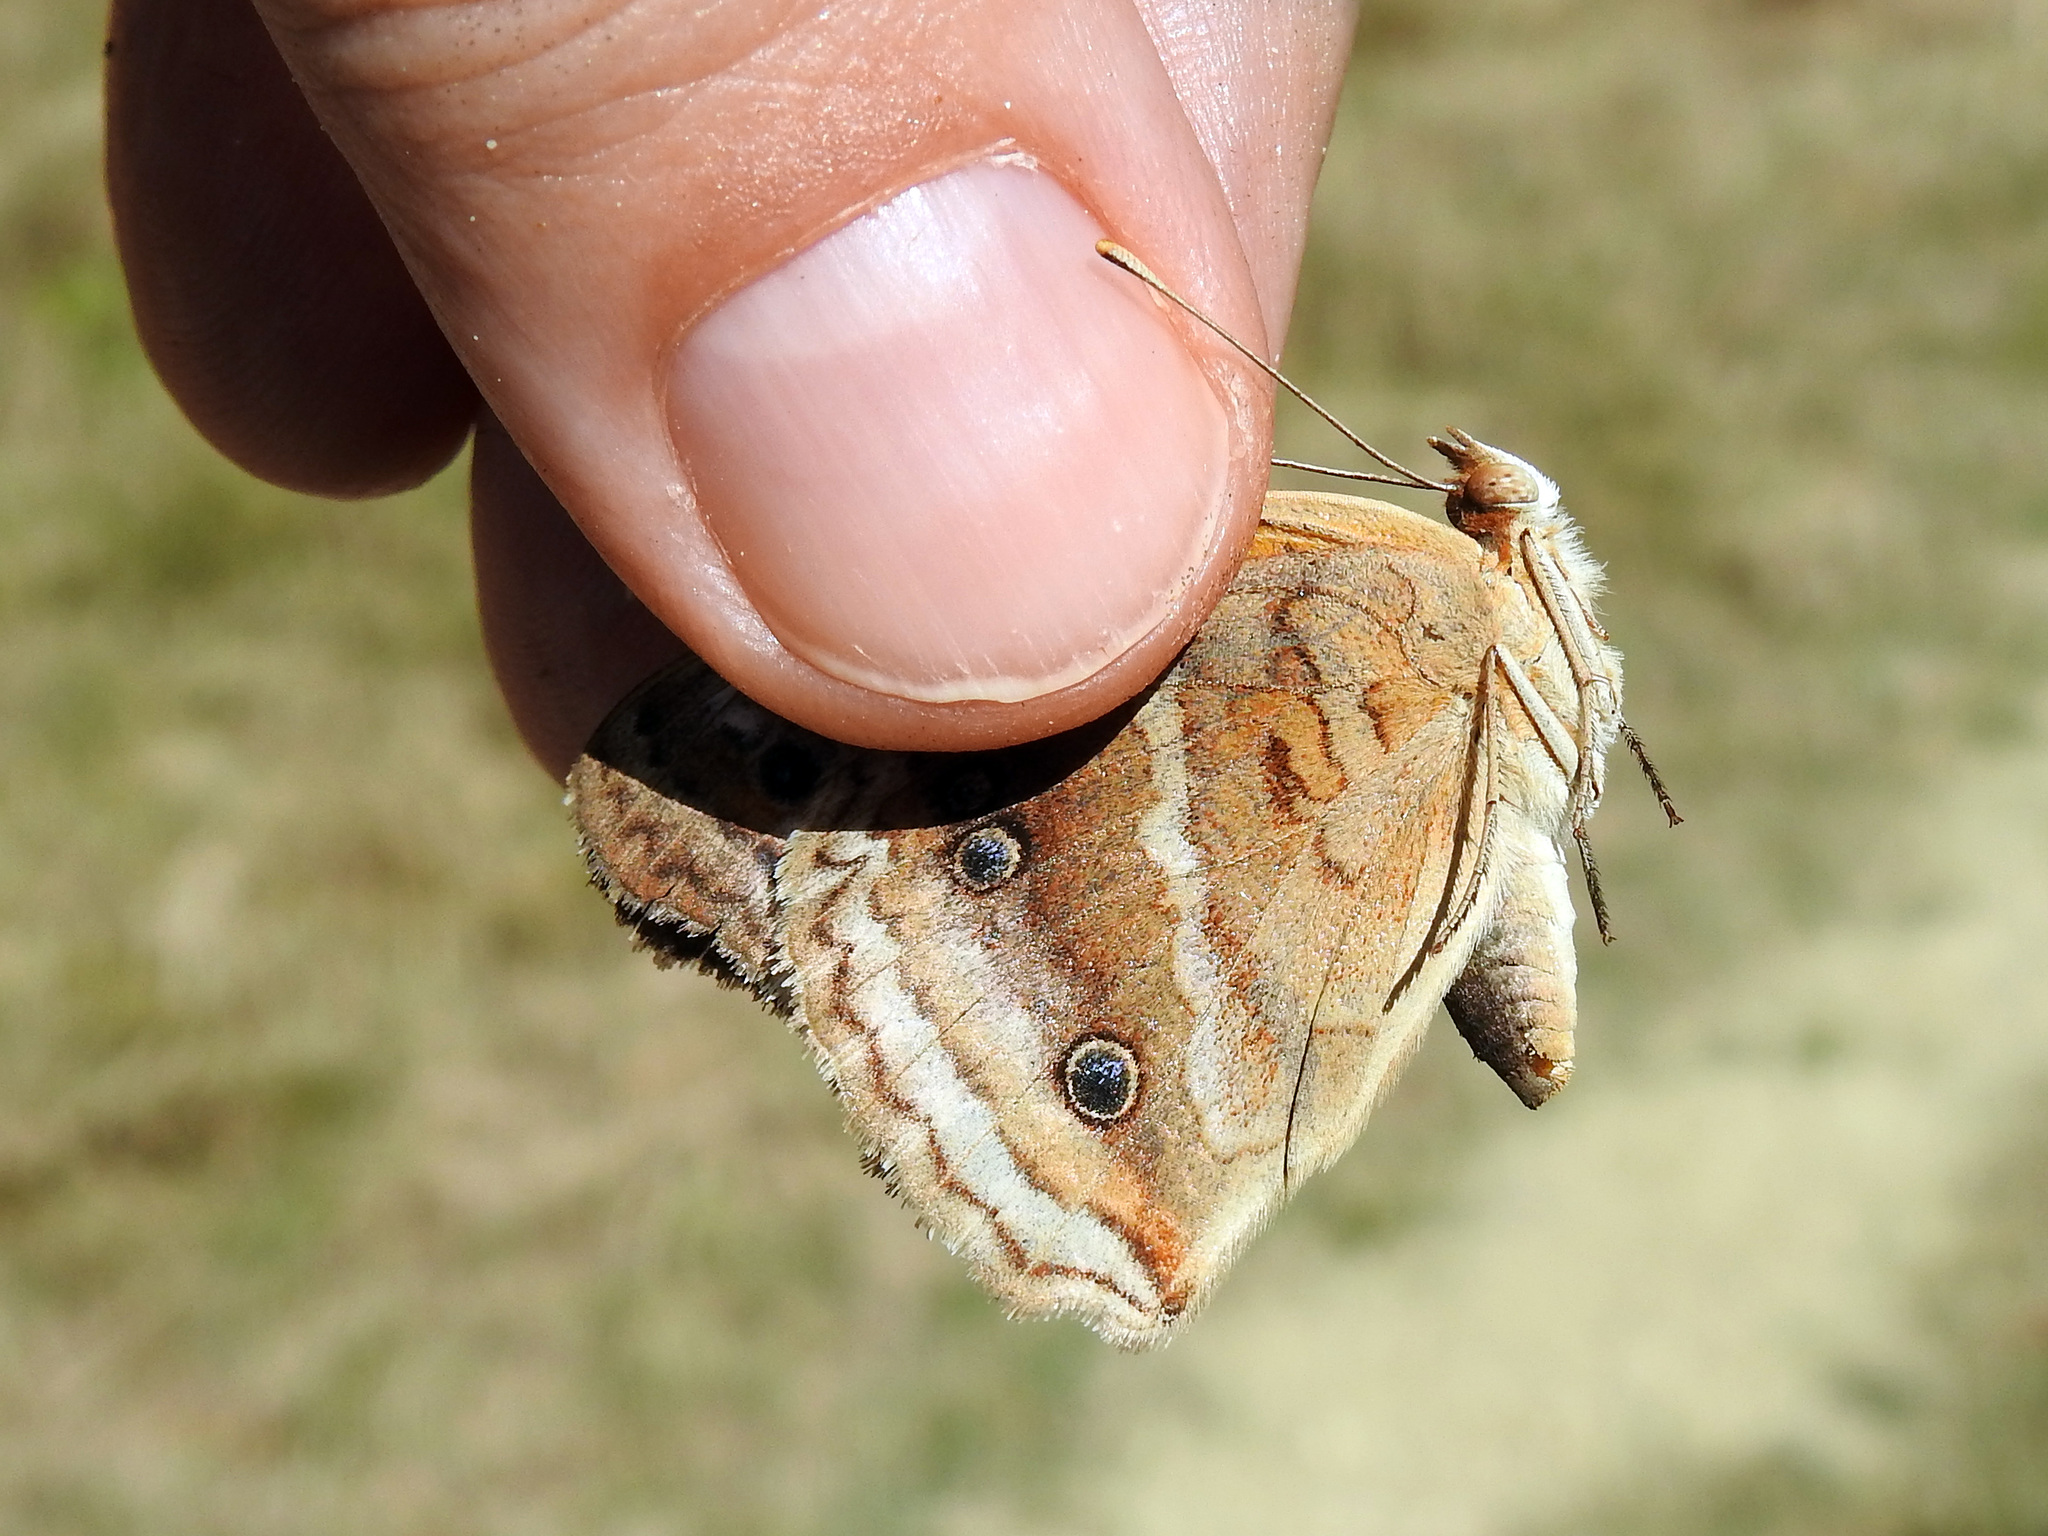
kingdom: Animalia
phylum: Arthropoda
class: Insecta
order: Lepidoptera
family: Nymphalidae
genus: Junonia
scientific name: Junonia lavinia
